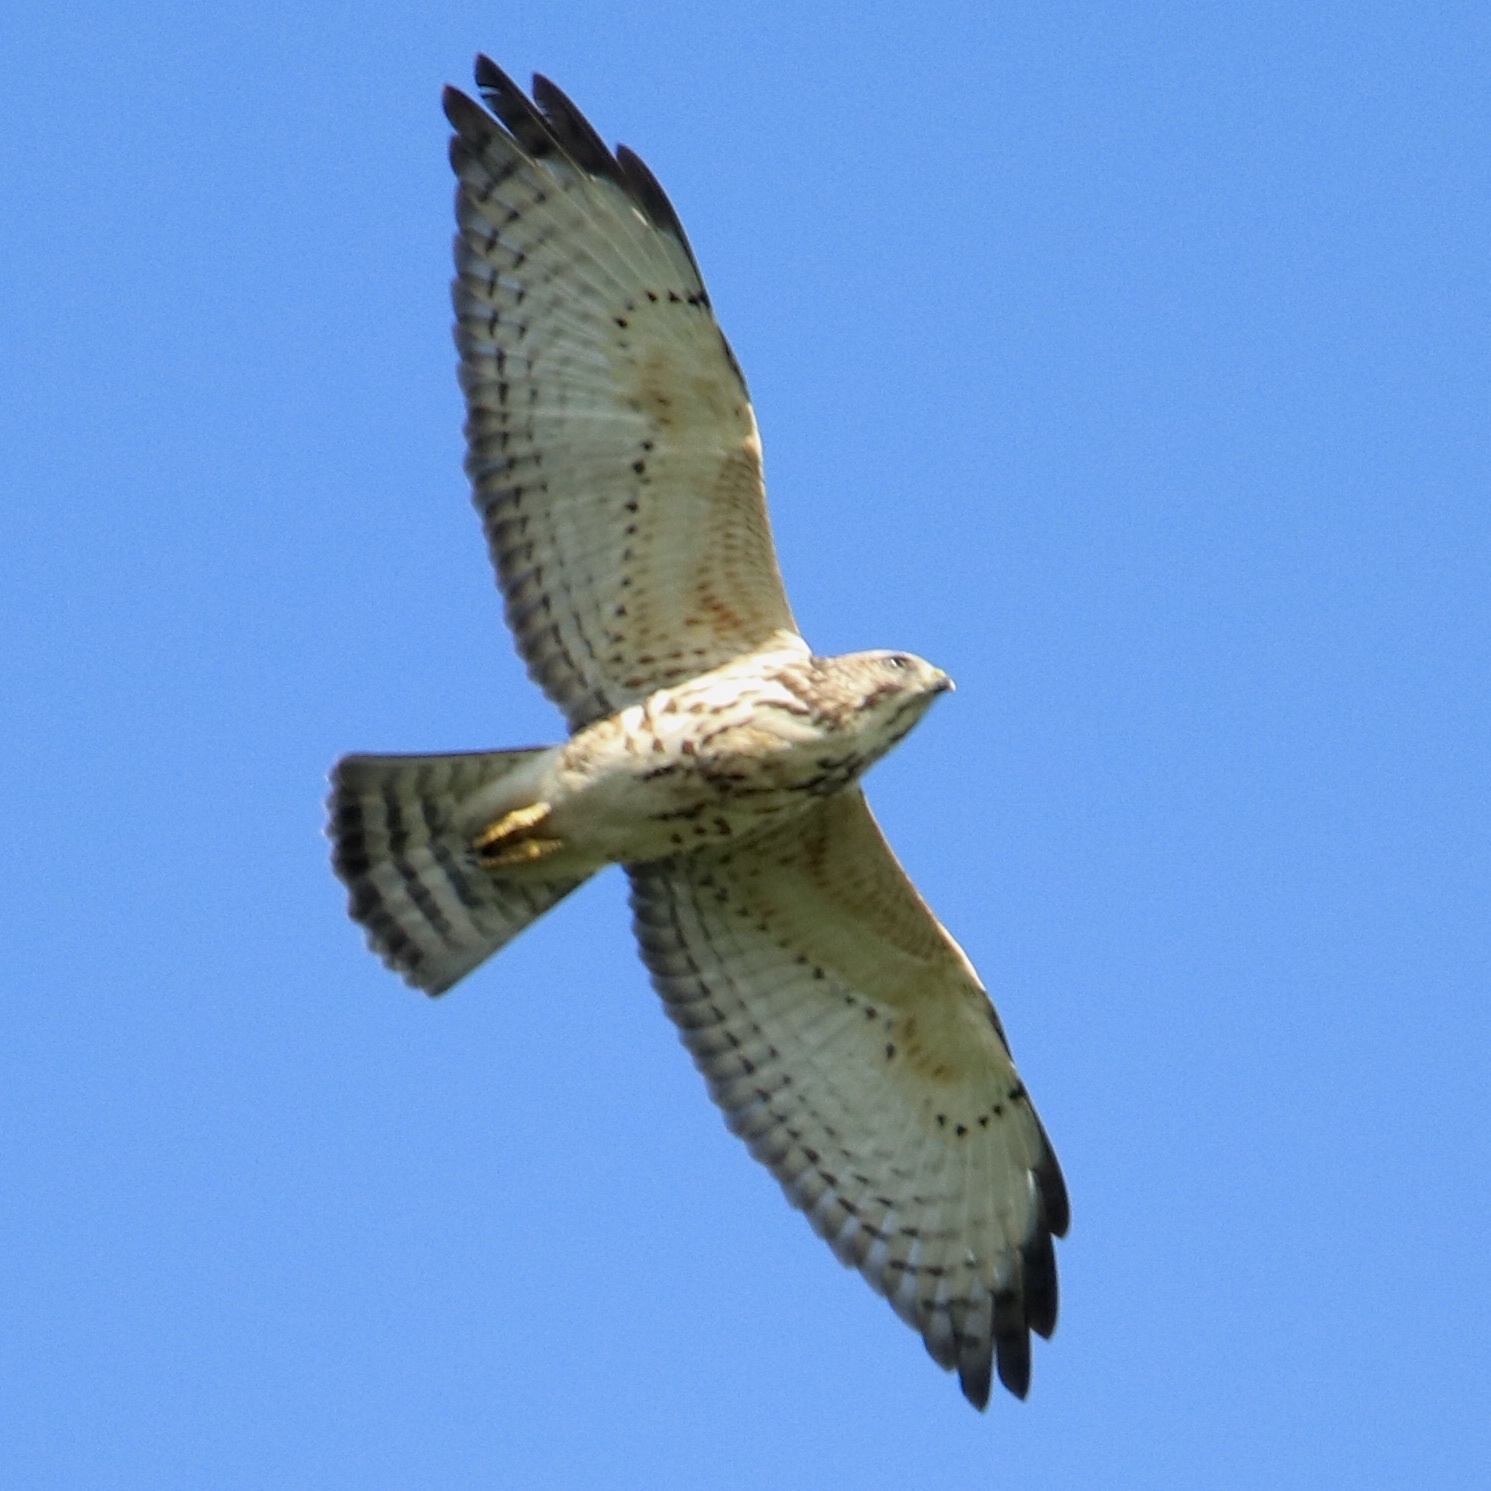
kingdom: Animalia
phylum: Chordata
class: Aves
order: Accipitriformes
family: Accipitridae
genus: Buteo
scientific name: Buteo platypterus
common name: Broad-winged hawk
